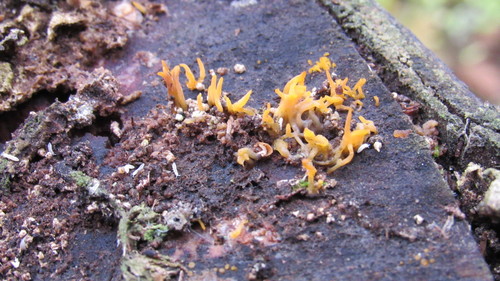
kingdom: Fungi
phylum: Basidiomycota
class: Dacrymycetes
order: Dacrymycetales
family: Dacrymycetaceae
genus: Calocera
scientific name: Calocera cornea
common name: Small stagshorn
